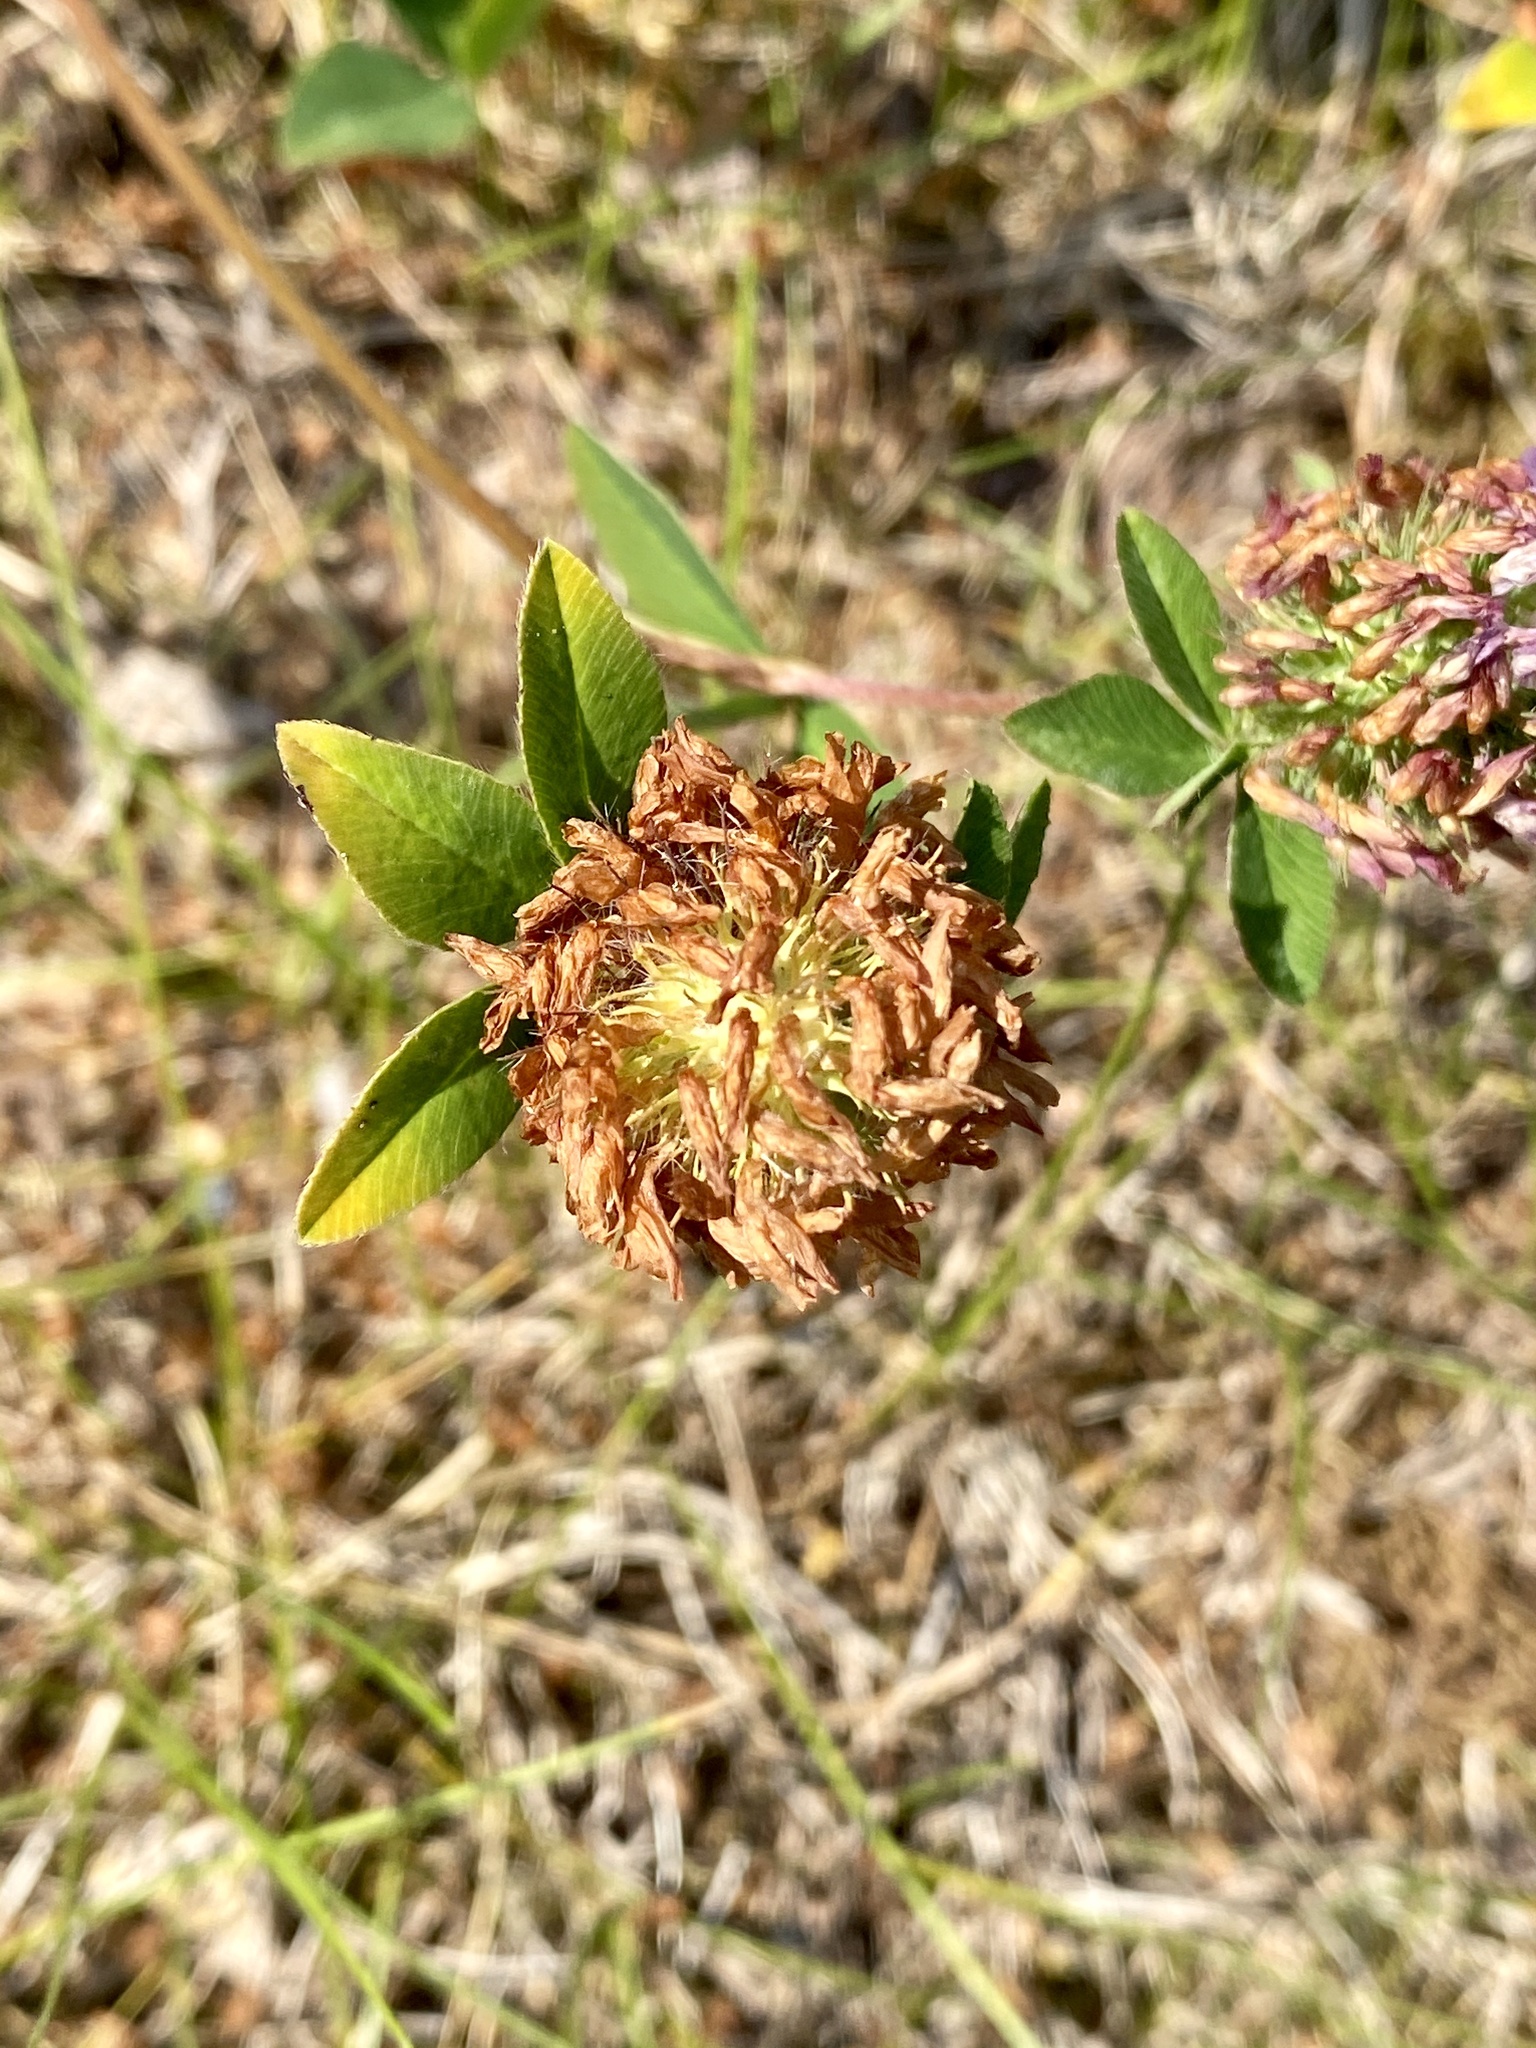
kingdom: Plantae
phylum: Tracheophyta
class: Magnoliopsida
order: Fabales
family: Fabaceae
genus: Trifolium
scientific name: Trifolium pratense
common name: Red clover
